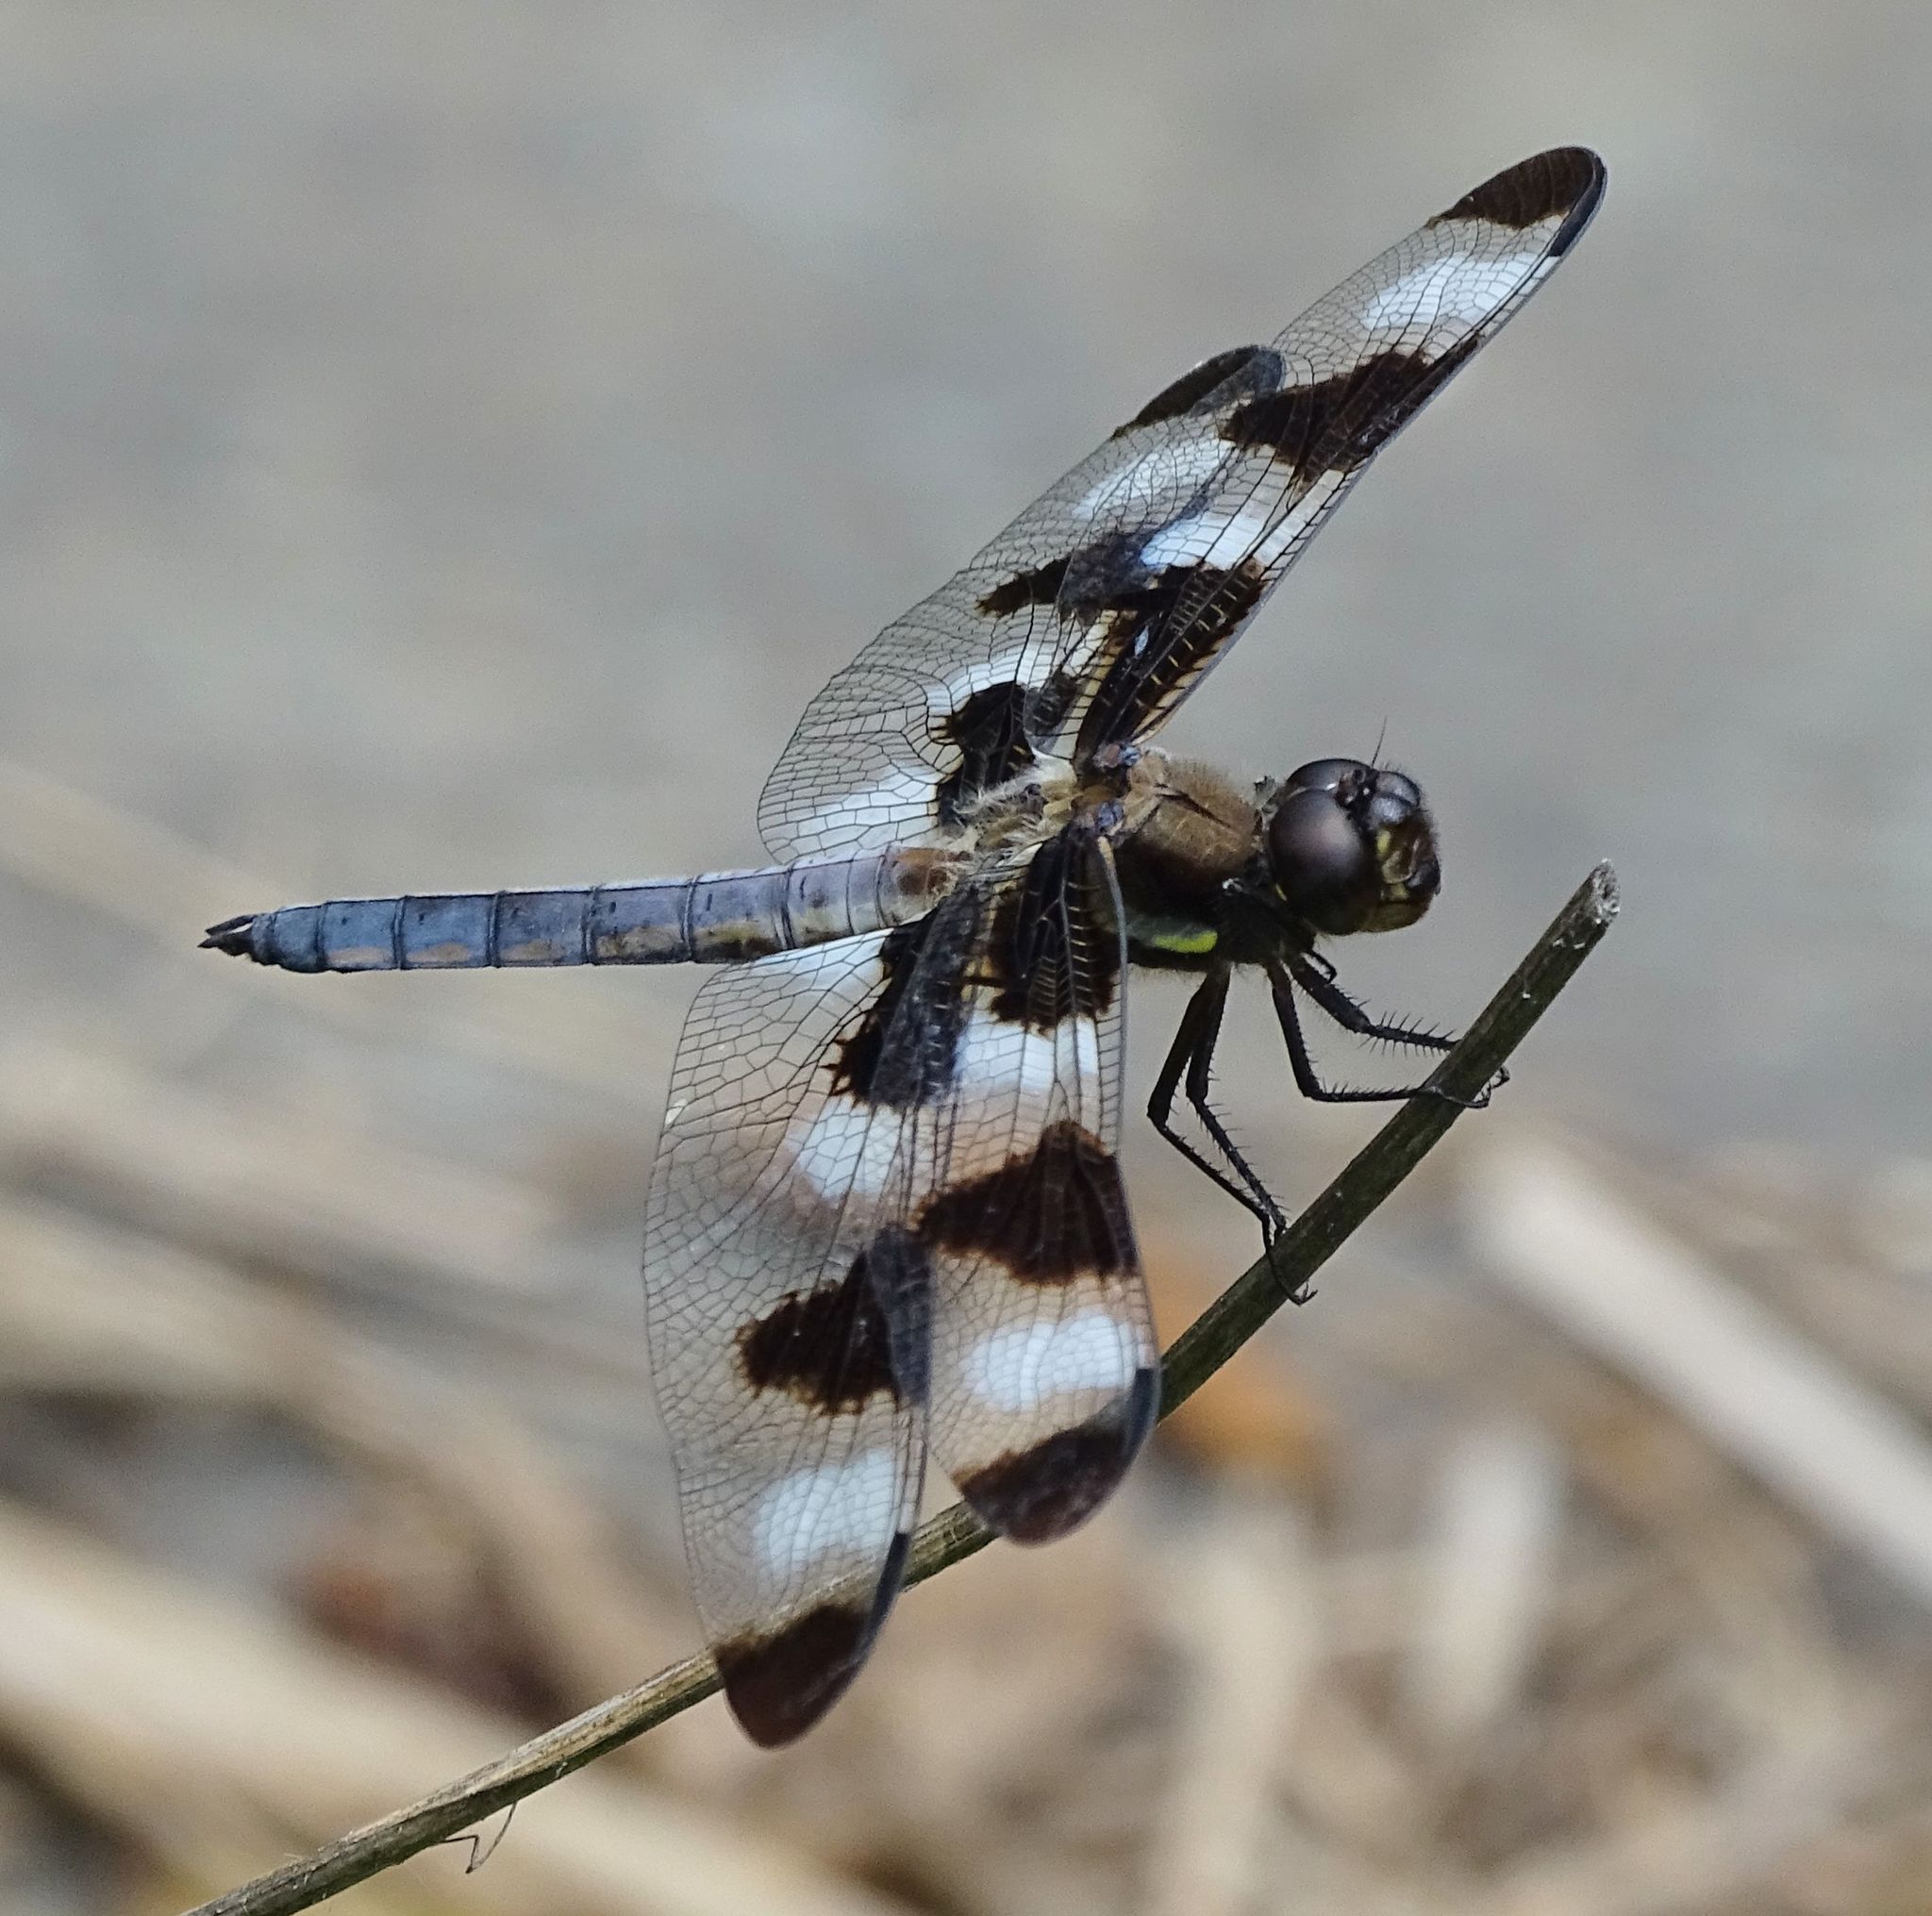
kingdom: Animalia
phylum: Arthropoda
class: Insecta
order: Odonata
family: Libellulidae
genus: Libellula
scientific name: Libellula pulchella
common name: Twelve-spotted skimmer
